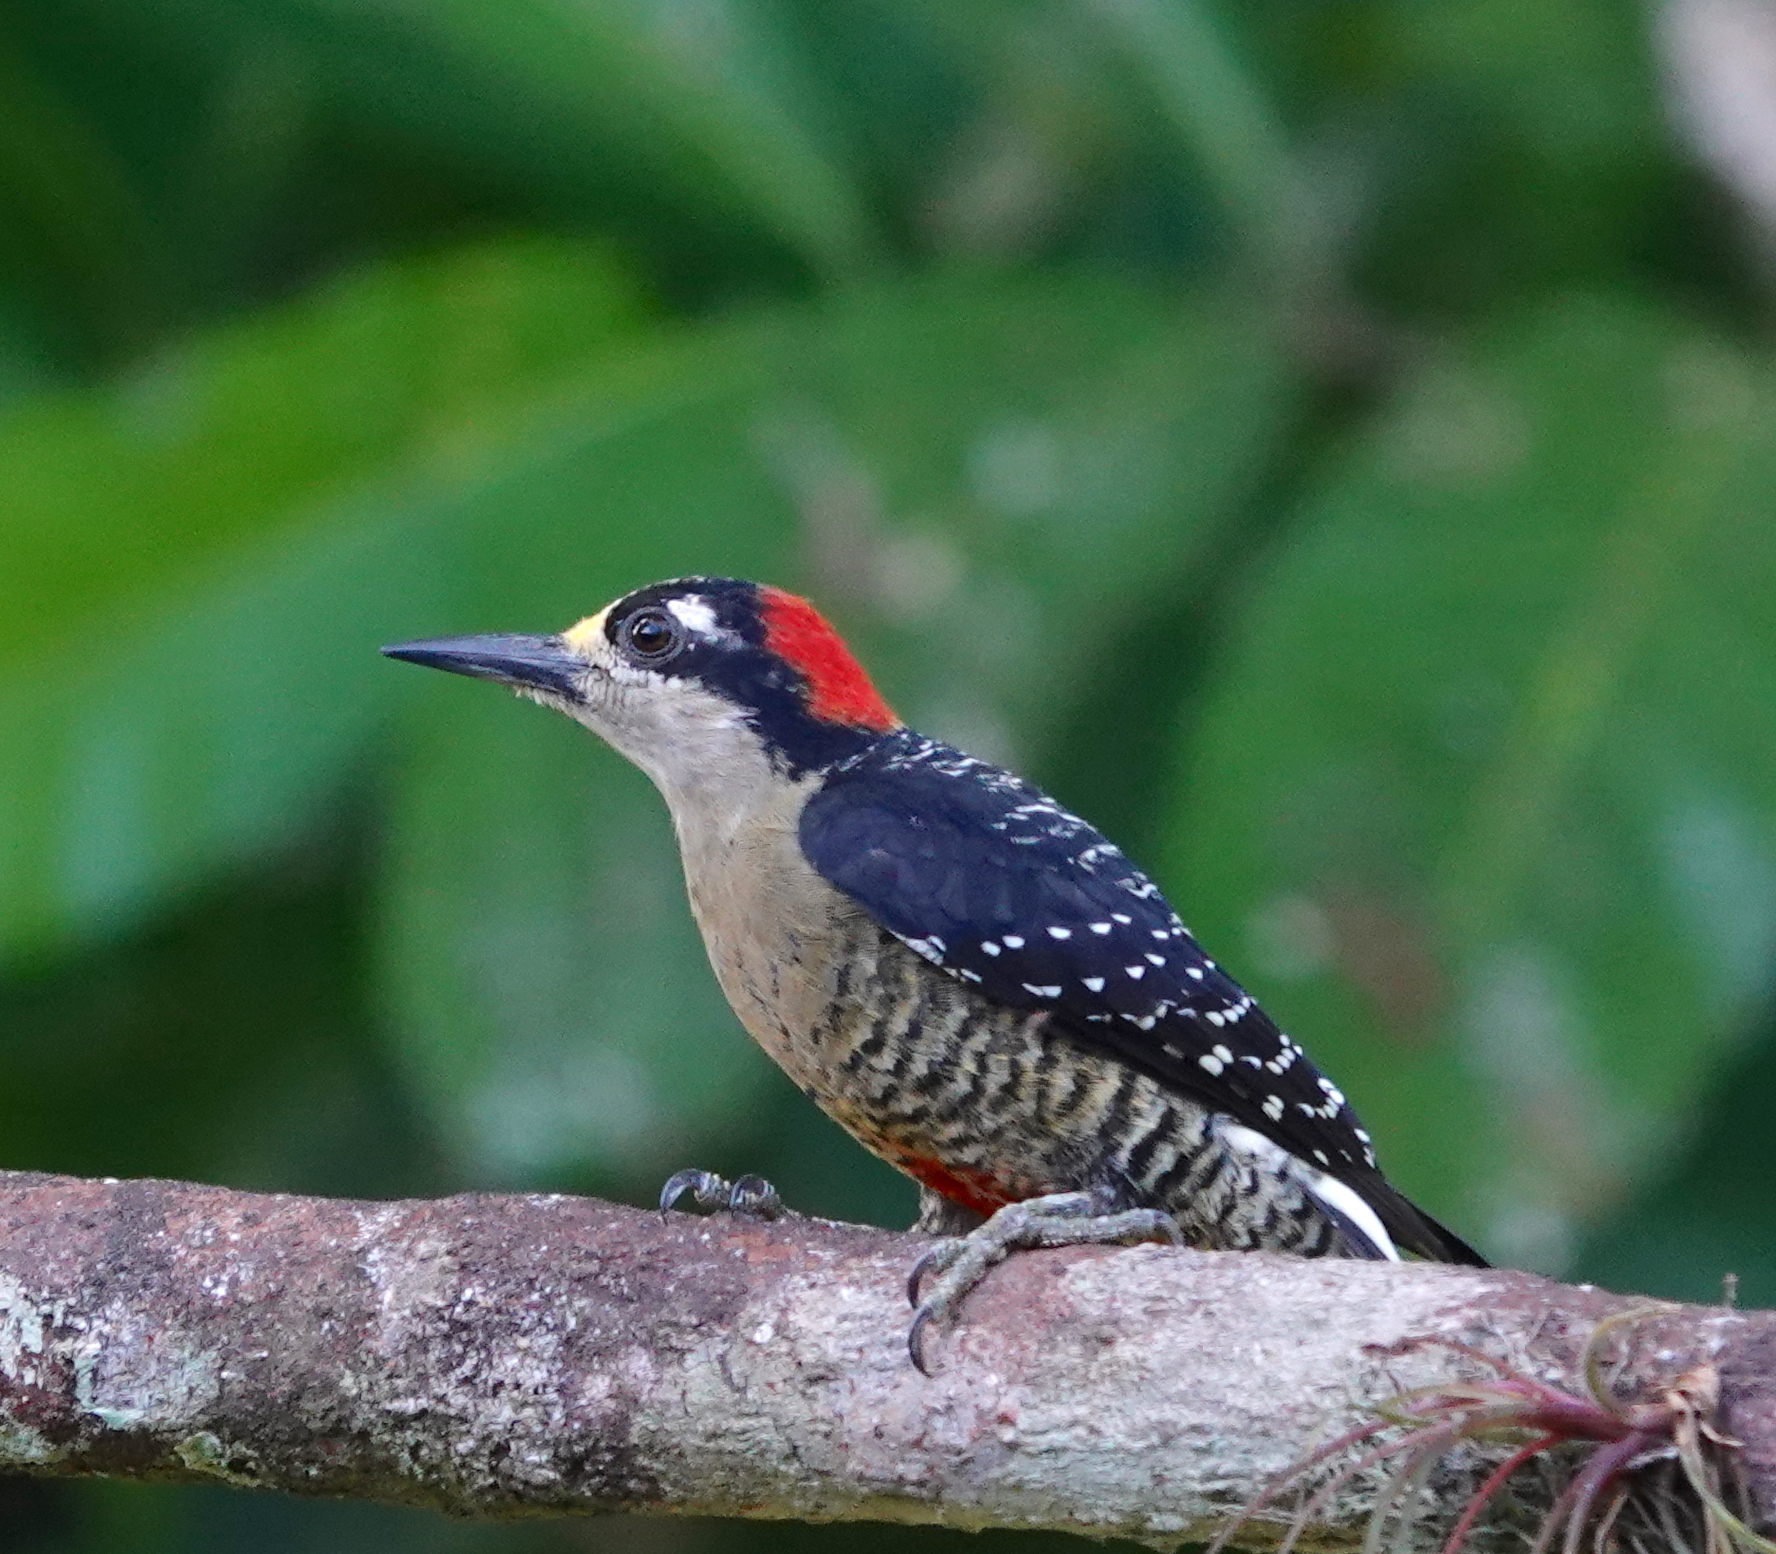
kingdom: Animalia
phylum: Chordata
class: Aves
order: Piciformes
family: Picidae
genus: Melanerpes
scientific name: Melanerpes pucherani
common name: Black-cheeked woodpecker
